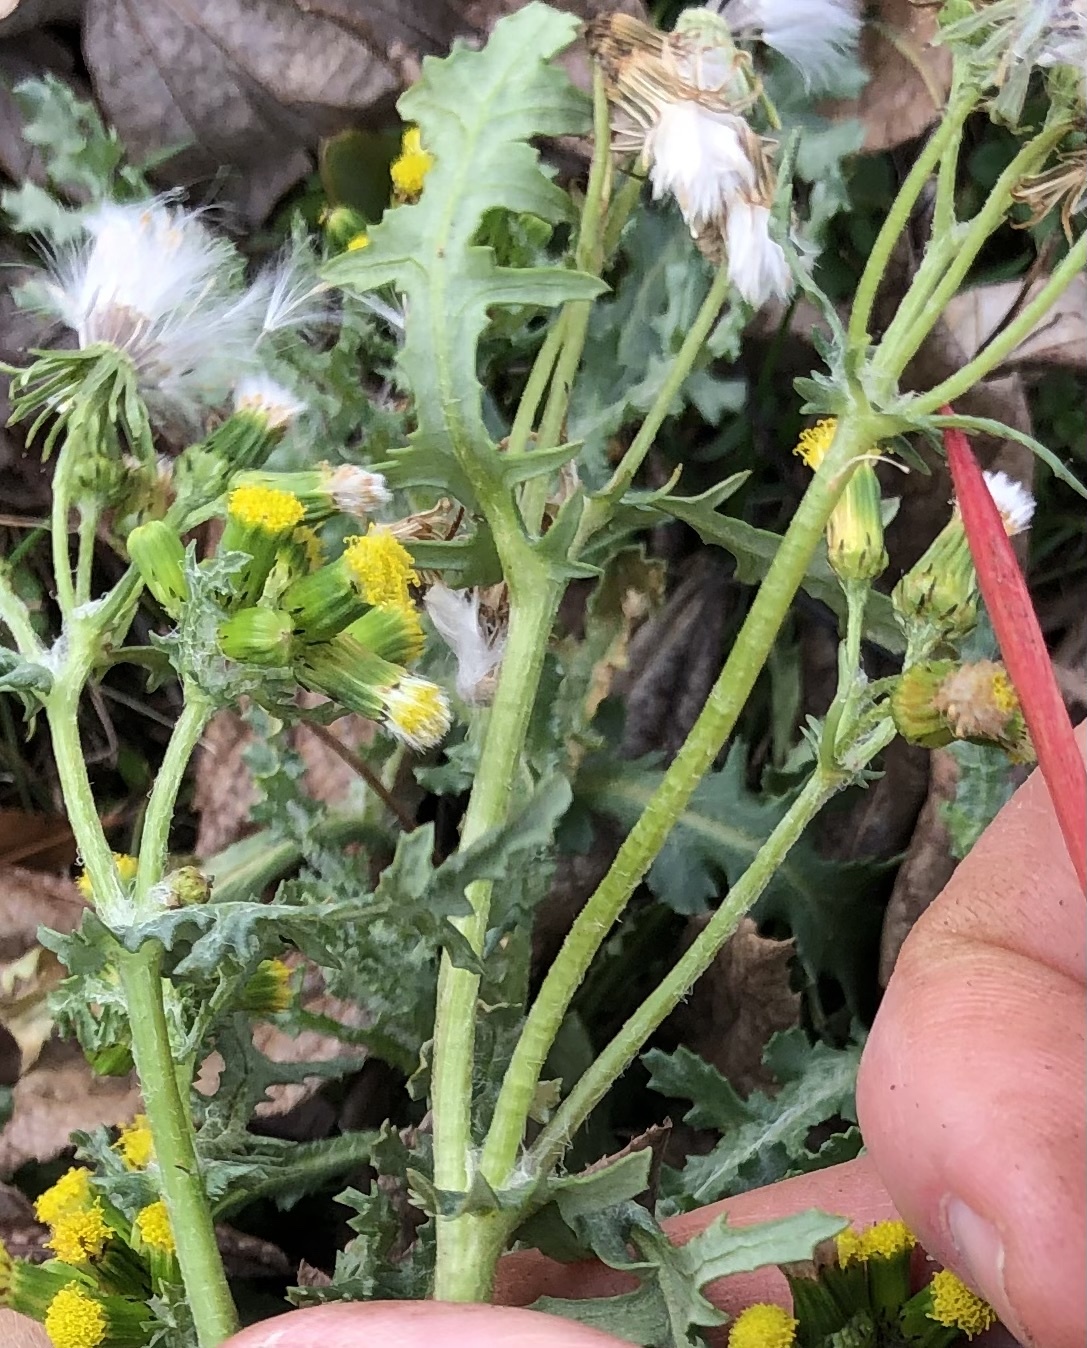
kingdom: Plantae
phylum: Tracheophyta
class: Magnoliopsida
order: Asterales
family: Asteraceae
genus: Senecio
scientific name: Senecio vulgaris
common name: Old-man-in-the-spring
